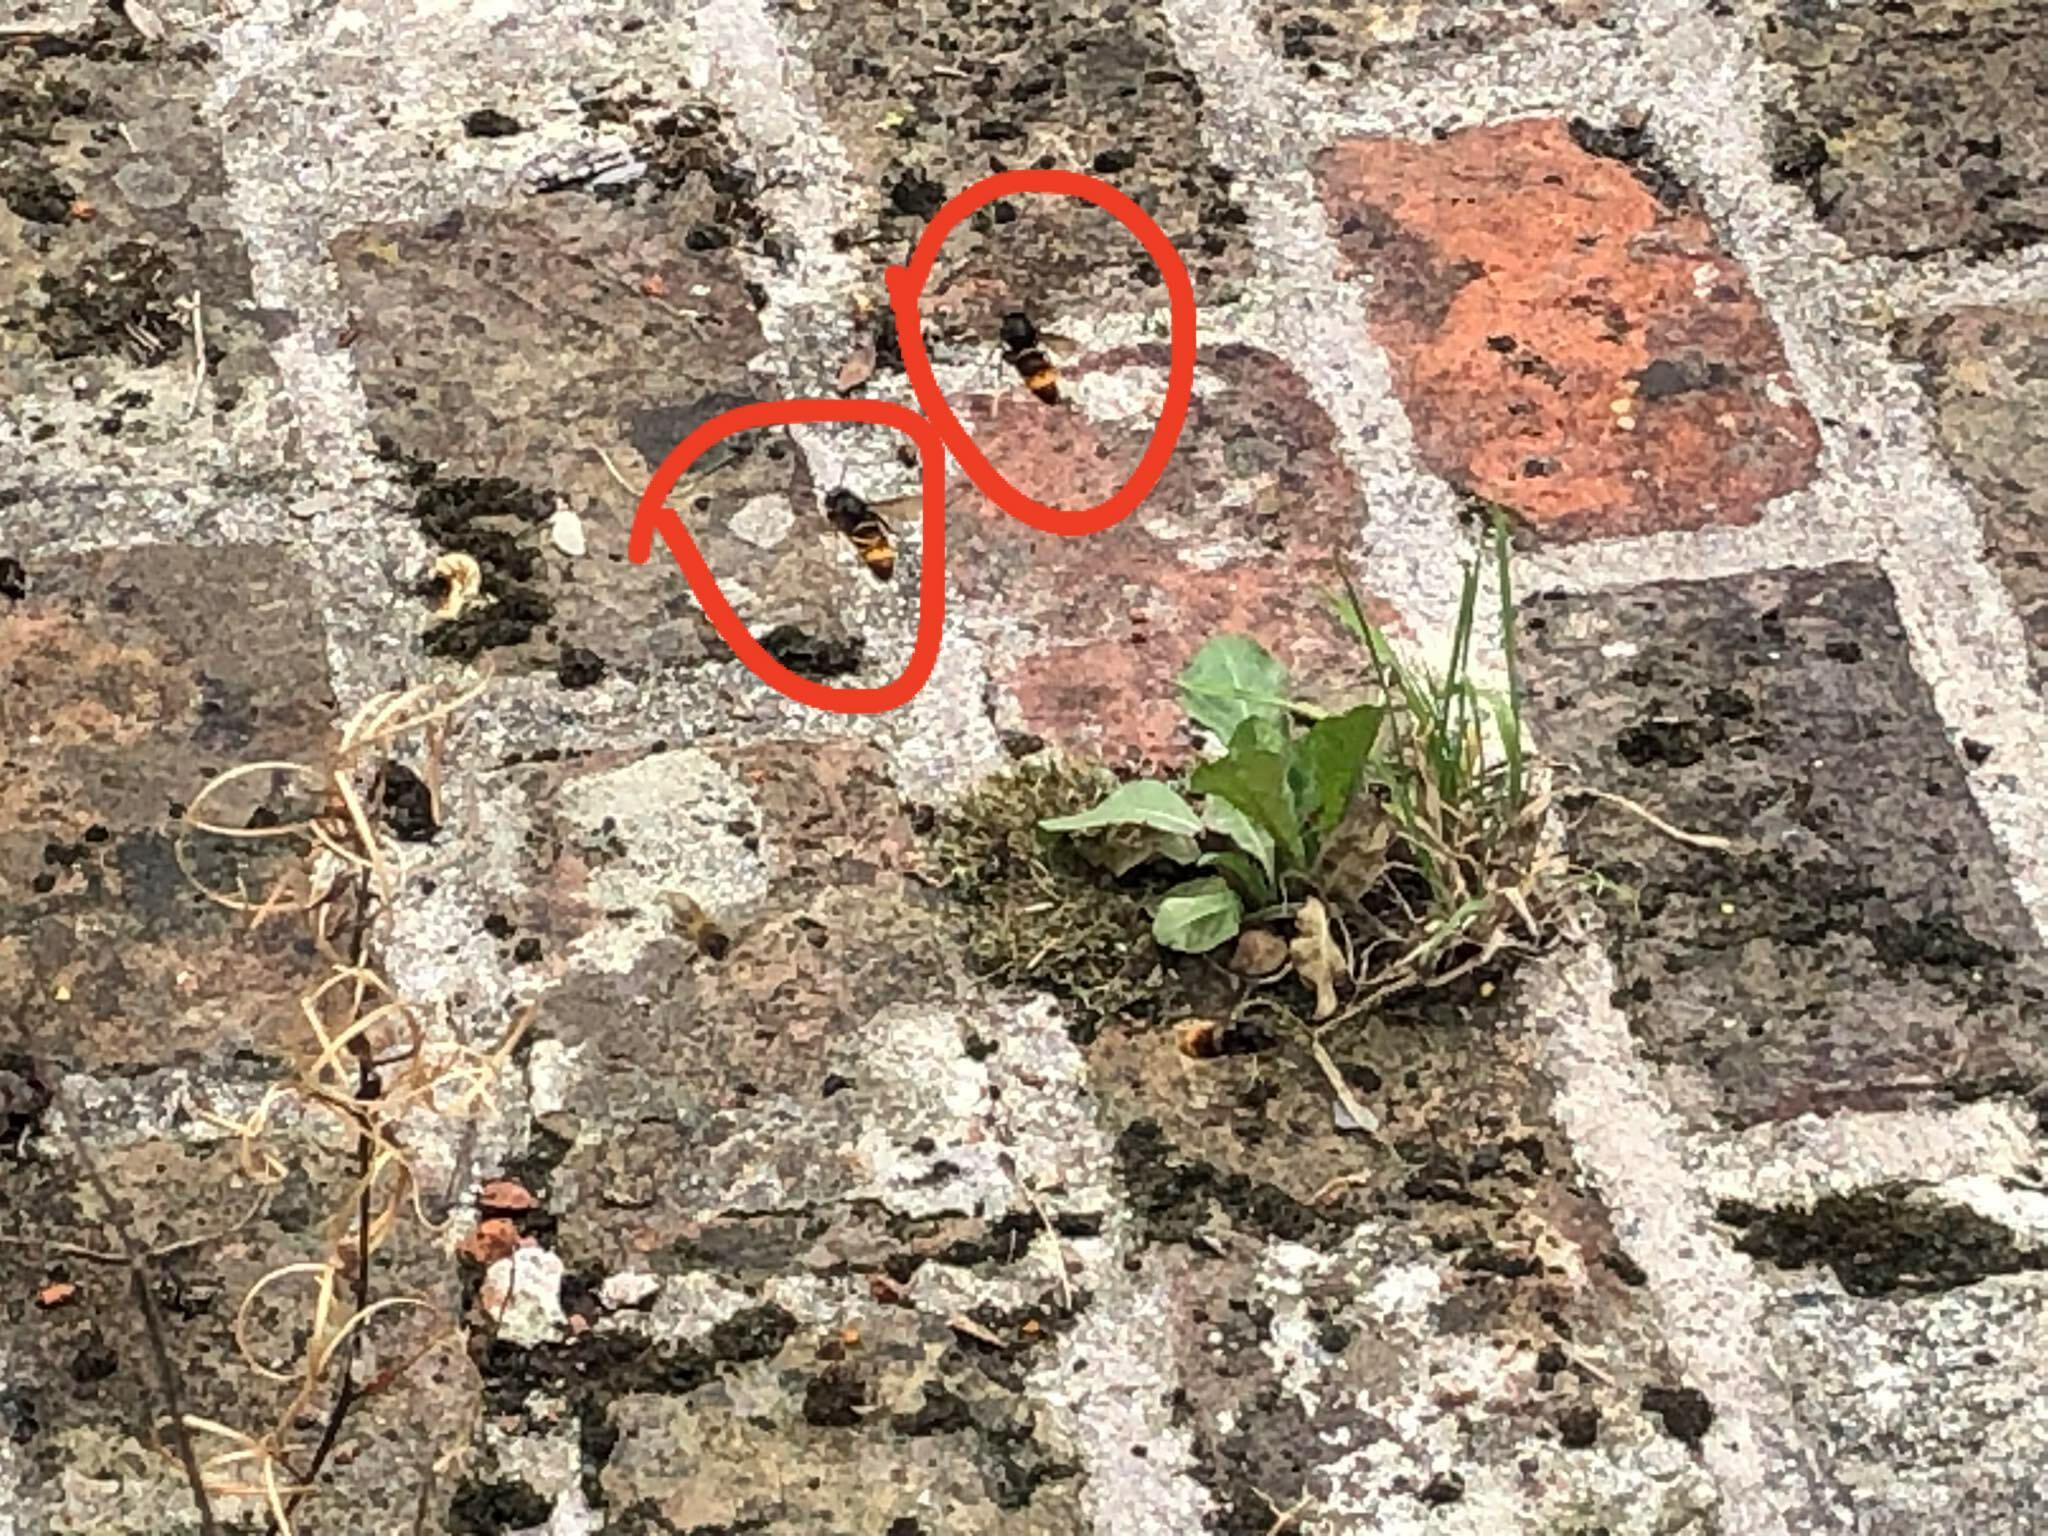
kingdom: Animalia
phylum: Arthropoda
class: Insecta
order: Hymenoptera
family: Vespidae
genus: Vespa
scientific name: Vespa velutina
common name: Asian hornet
